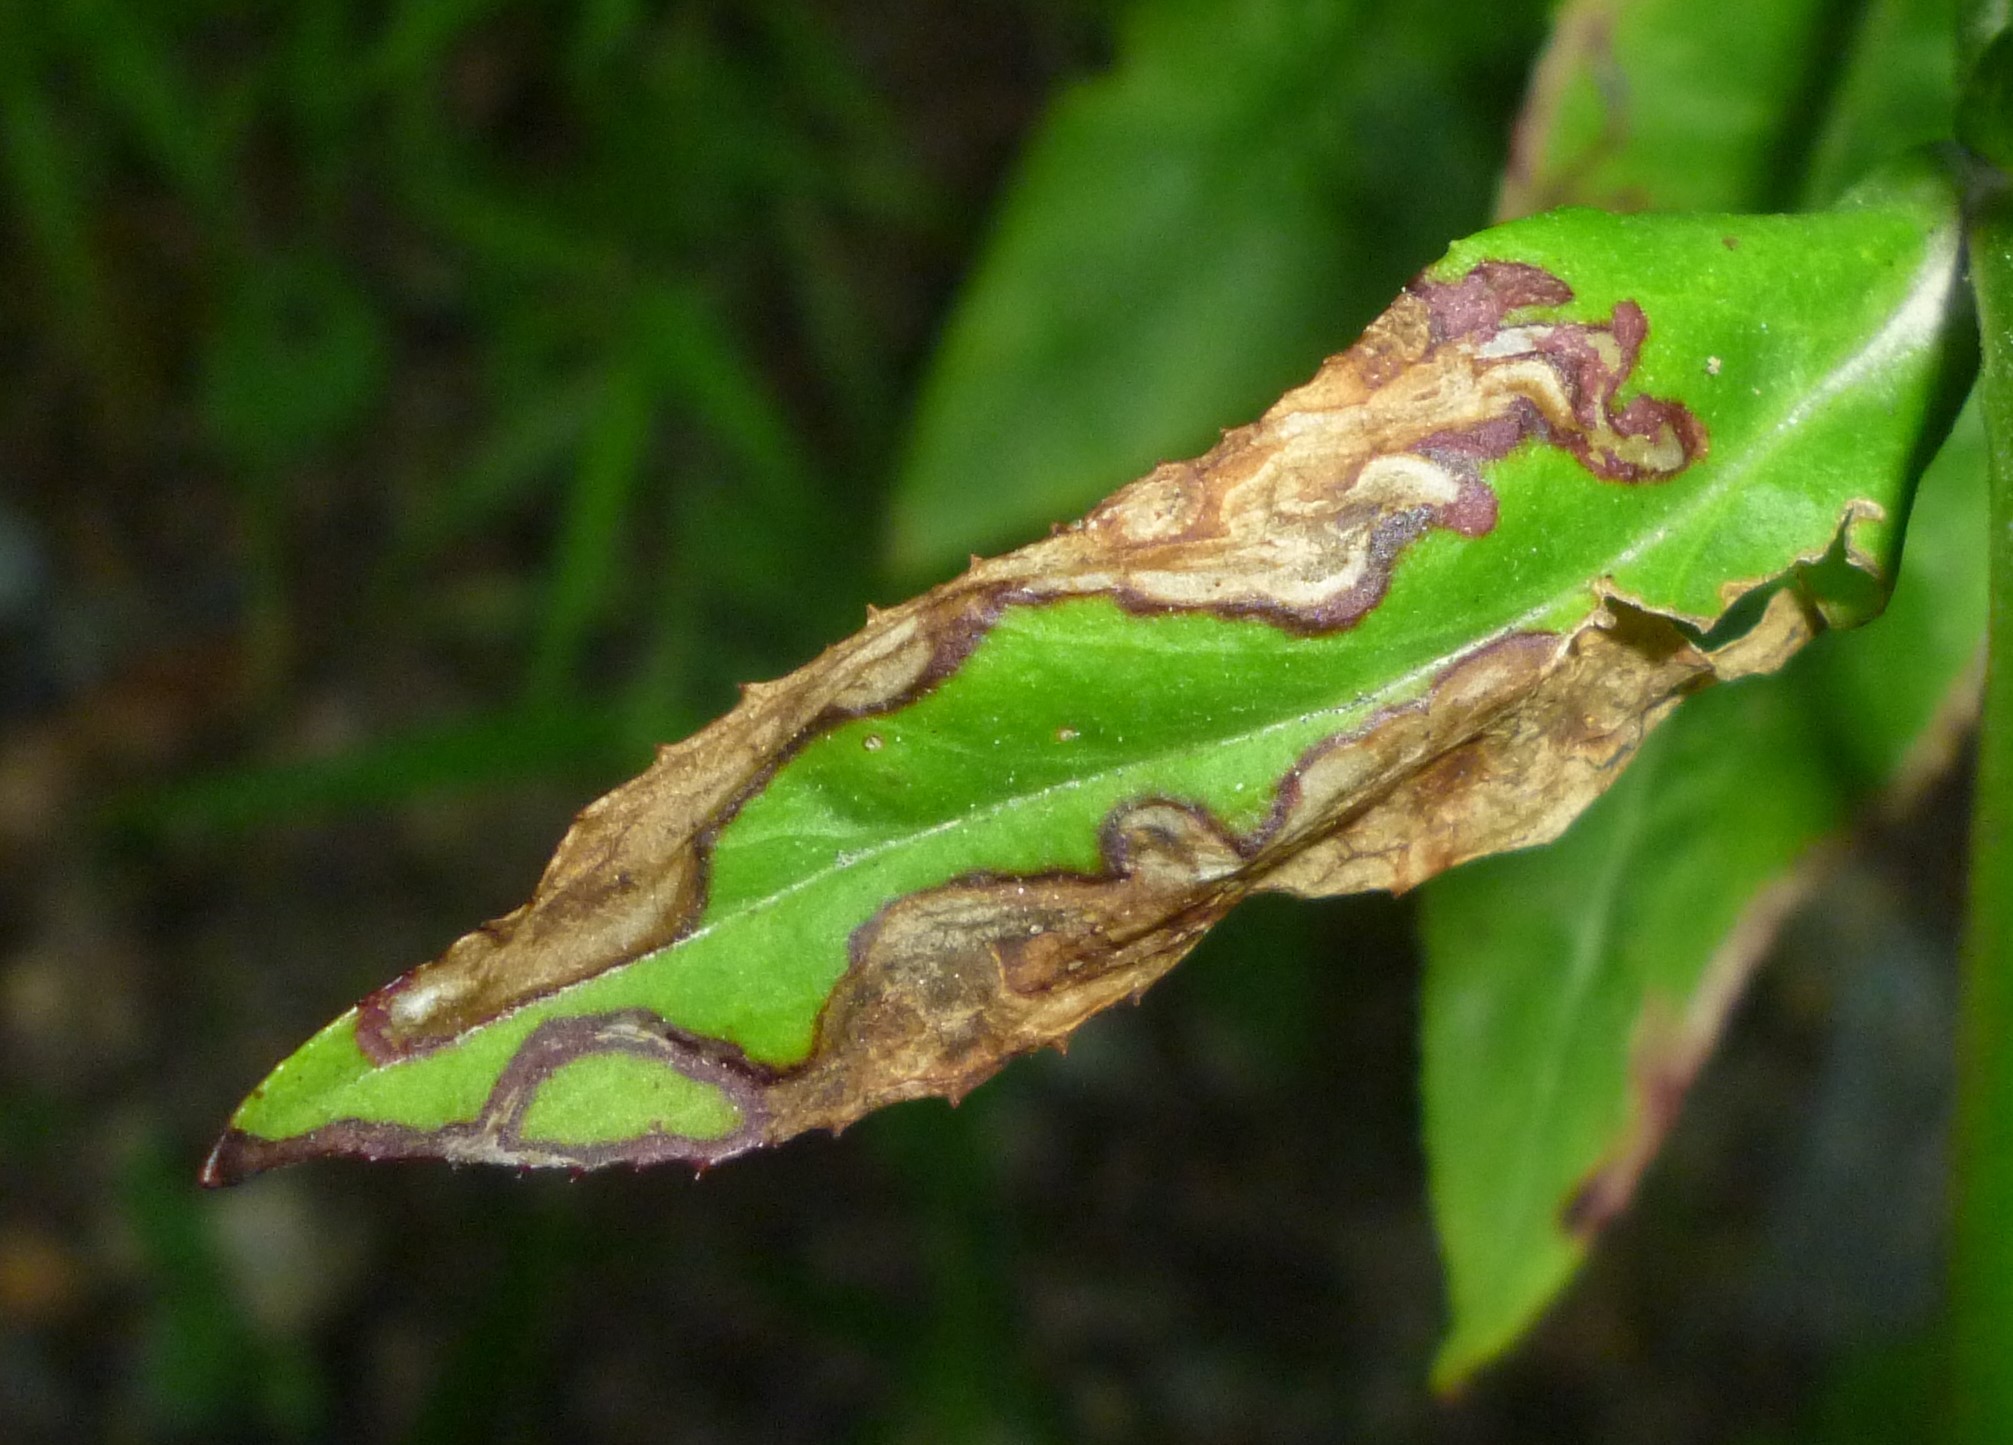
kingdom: Animalia
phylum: Arthropoda
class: Insecta
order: Diptera
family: Agromyzidae
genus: Phytomyza
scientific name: Phytomyza penstemonis
